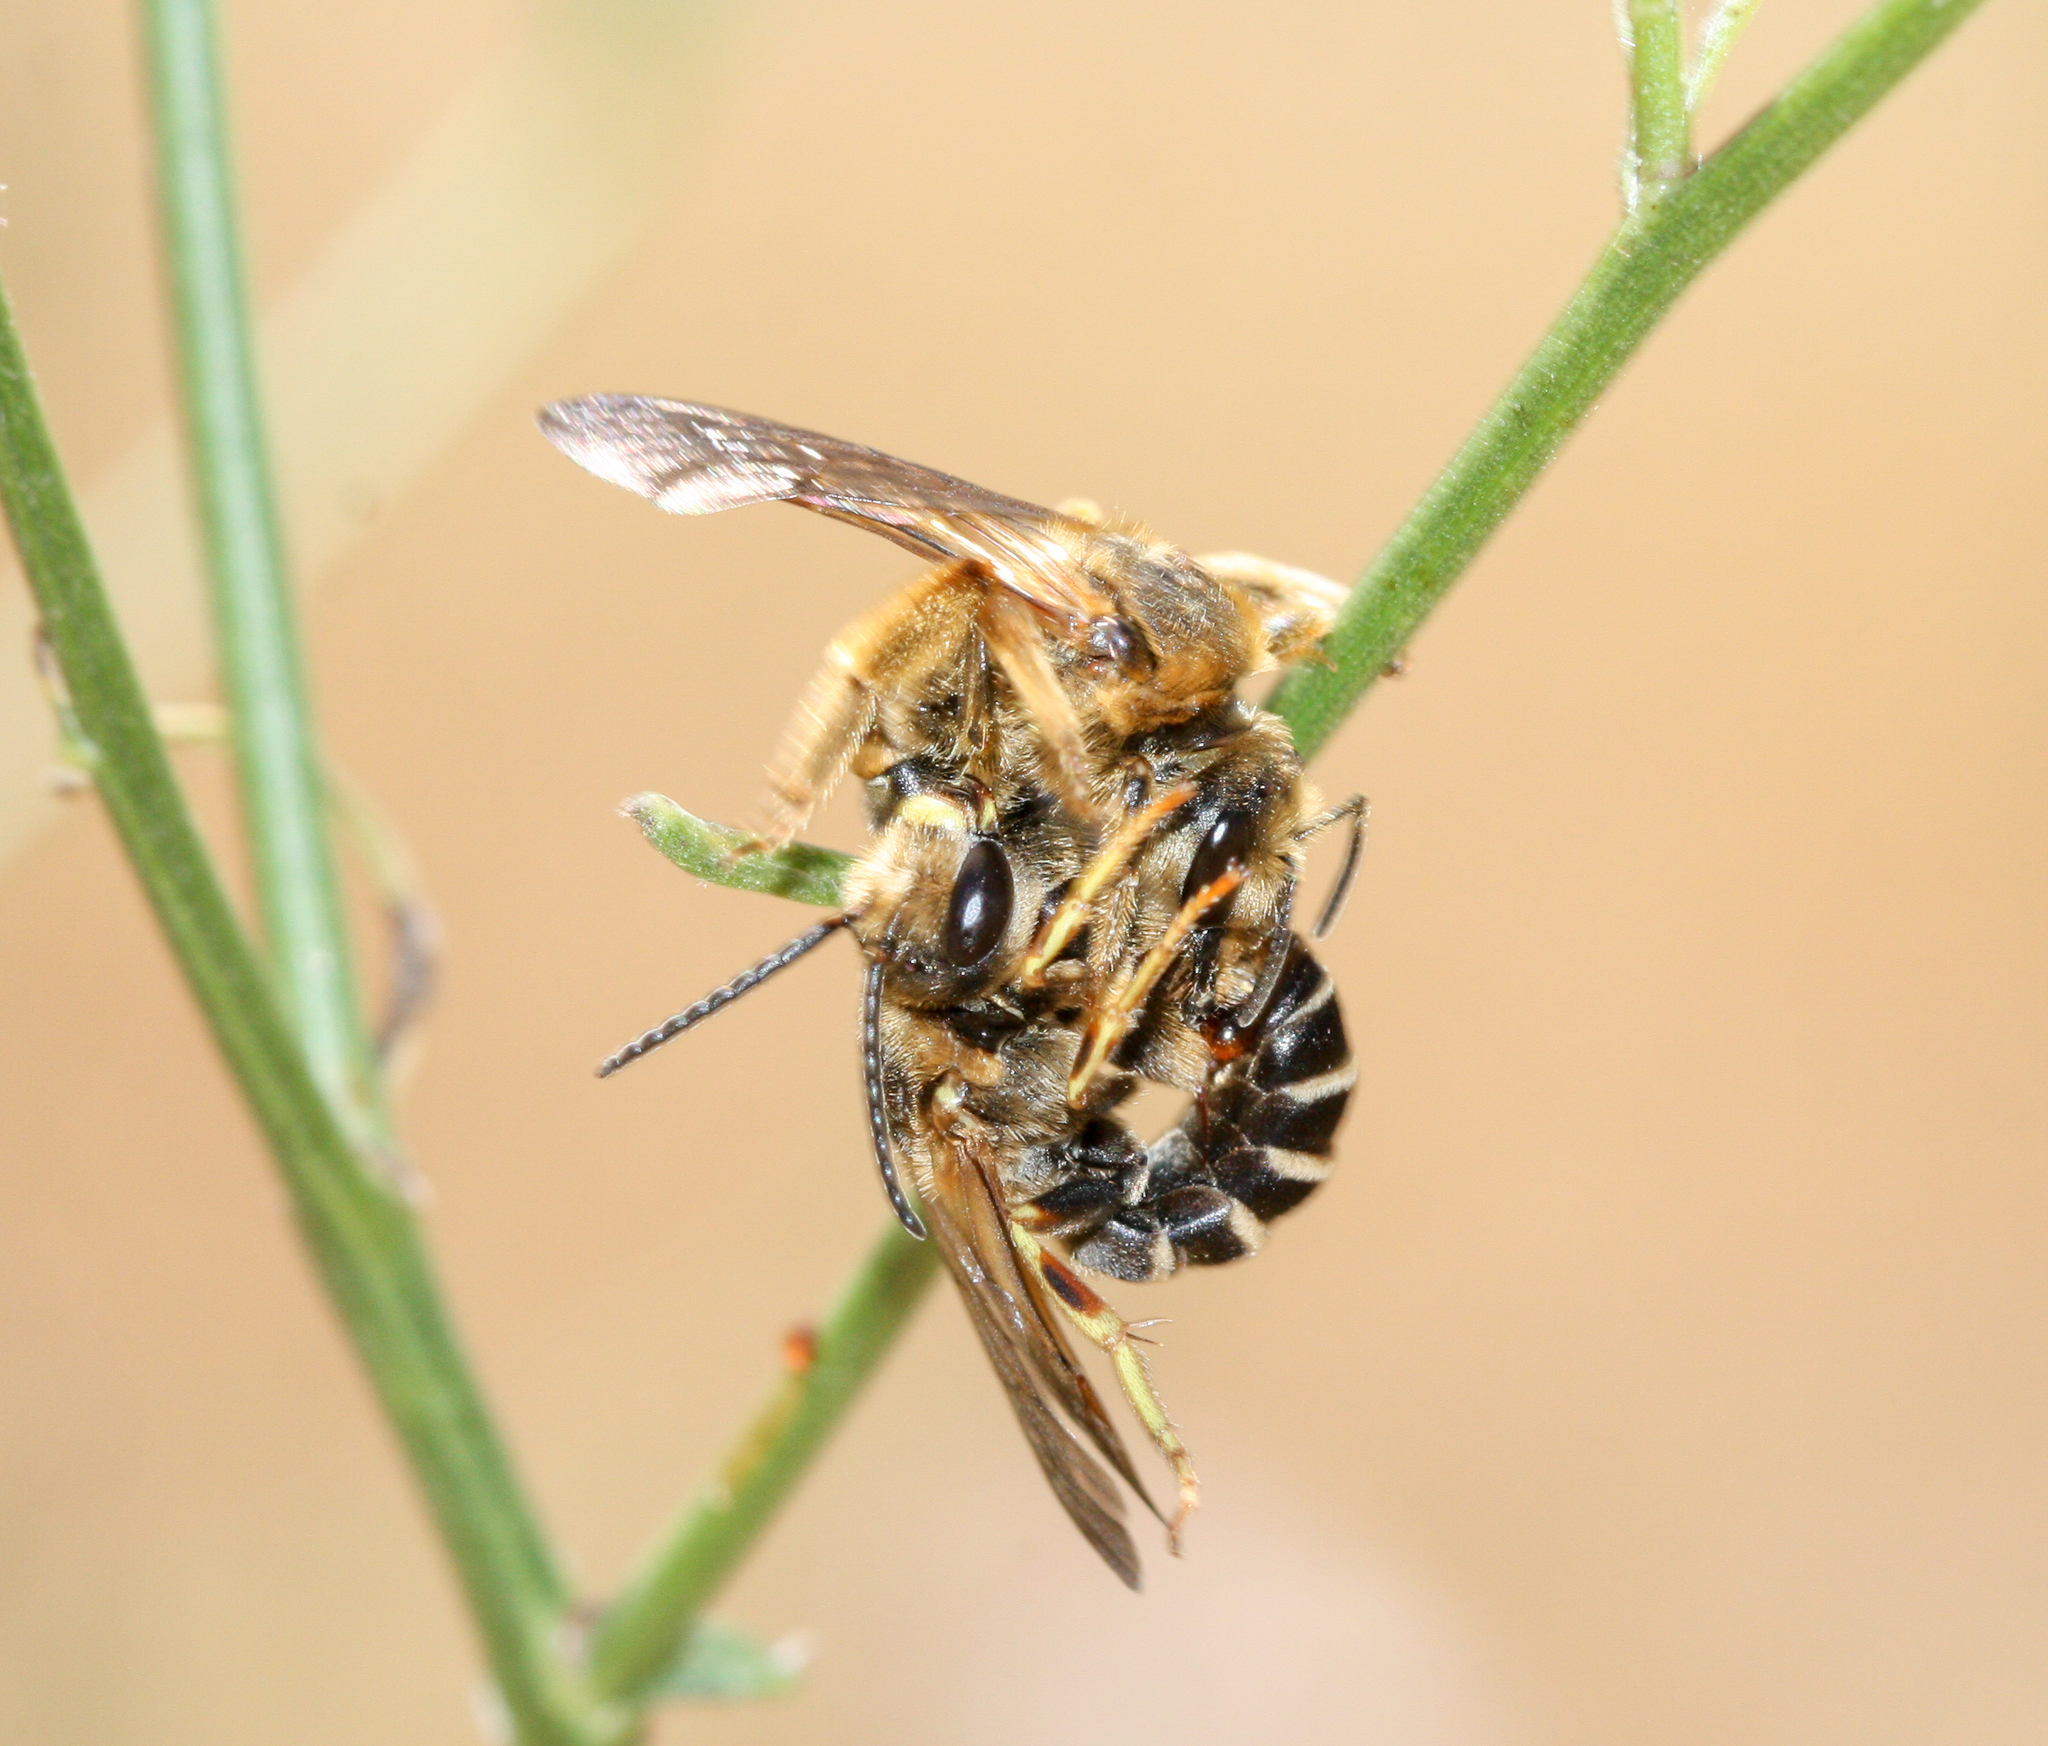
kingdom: Animalia
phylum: Arthropoda
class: Insecta
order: Hymenoptera
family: Halictidae
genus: Halictus
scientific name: Halictus farinosus
